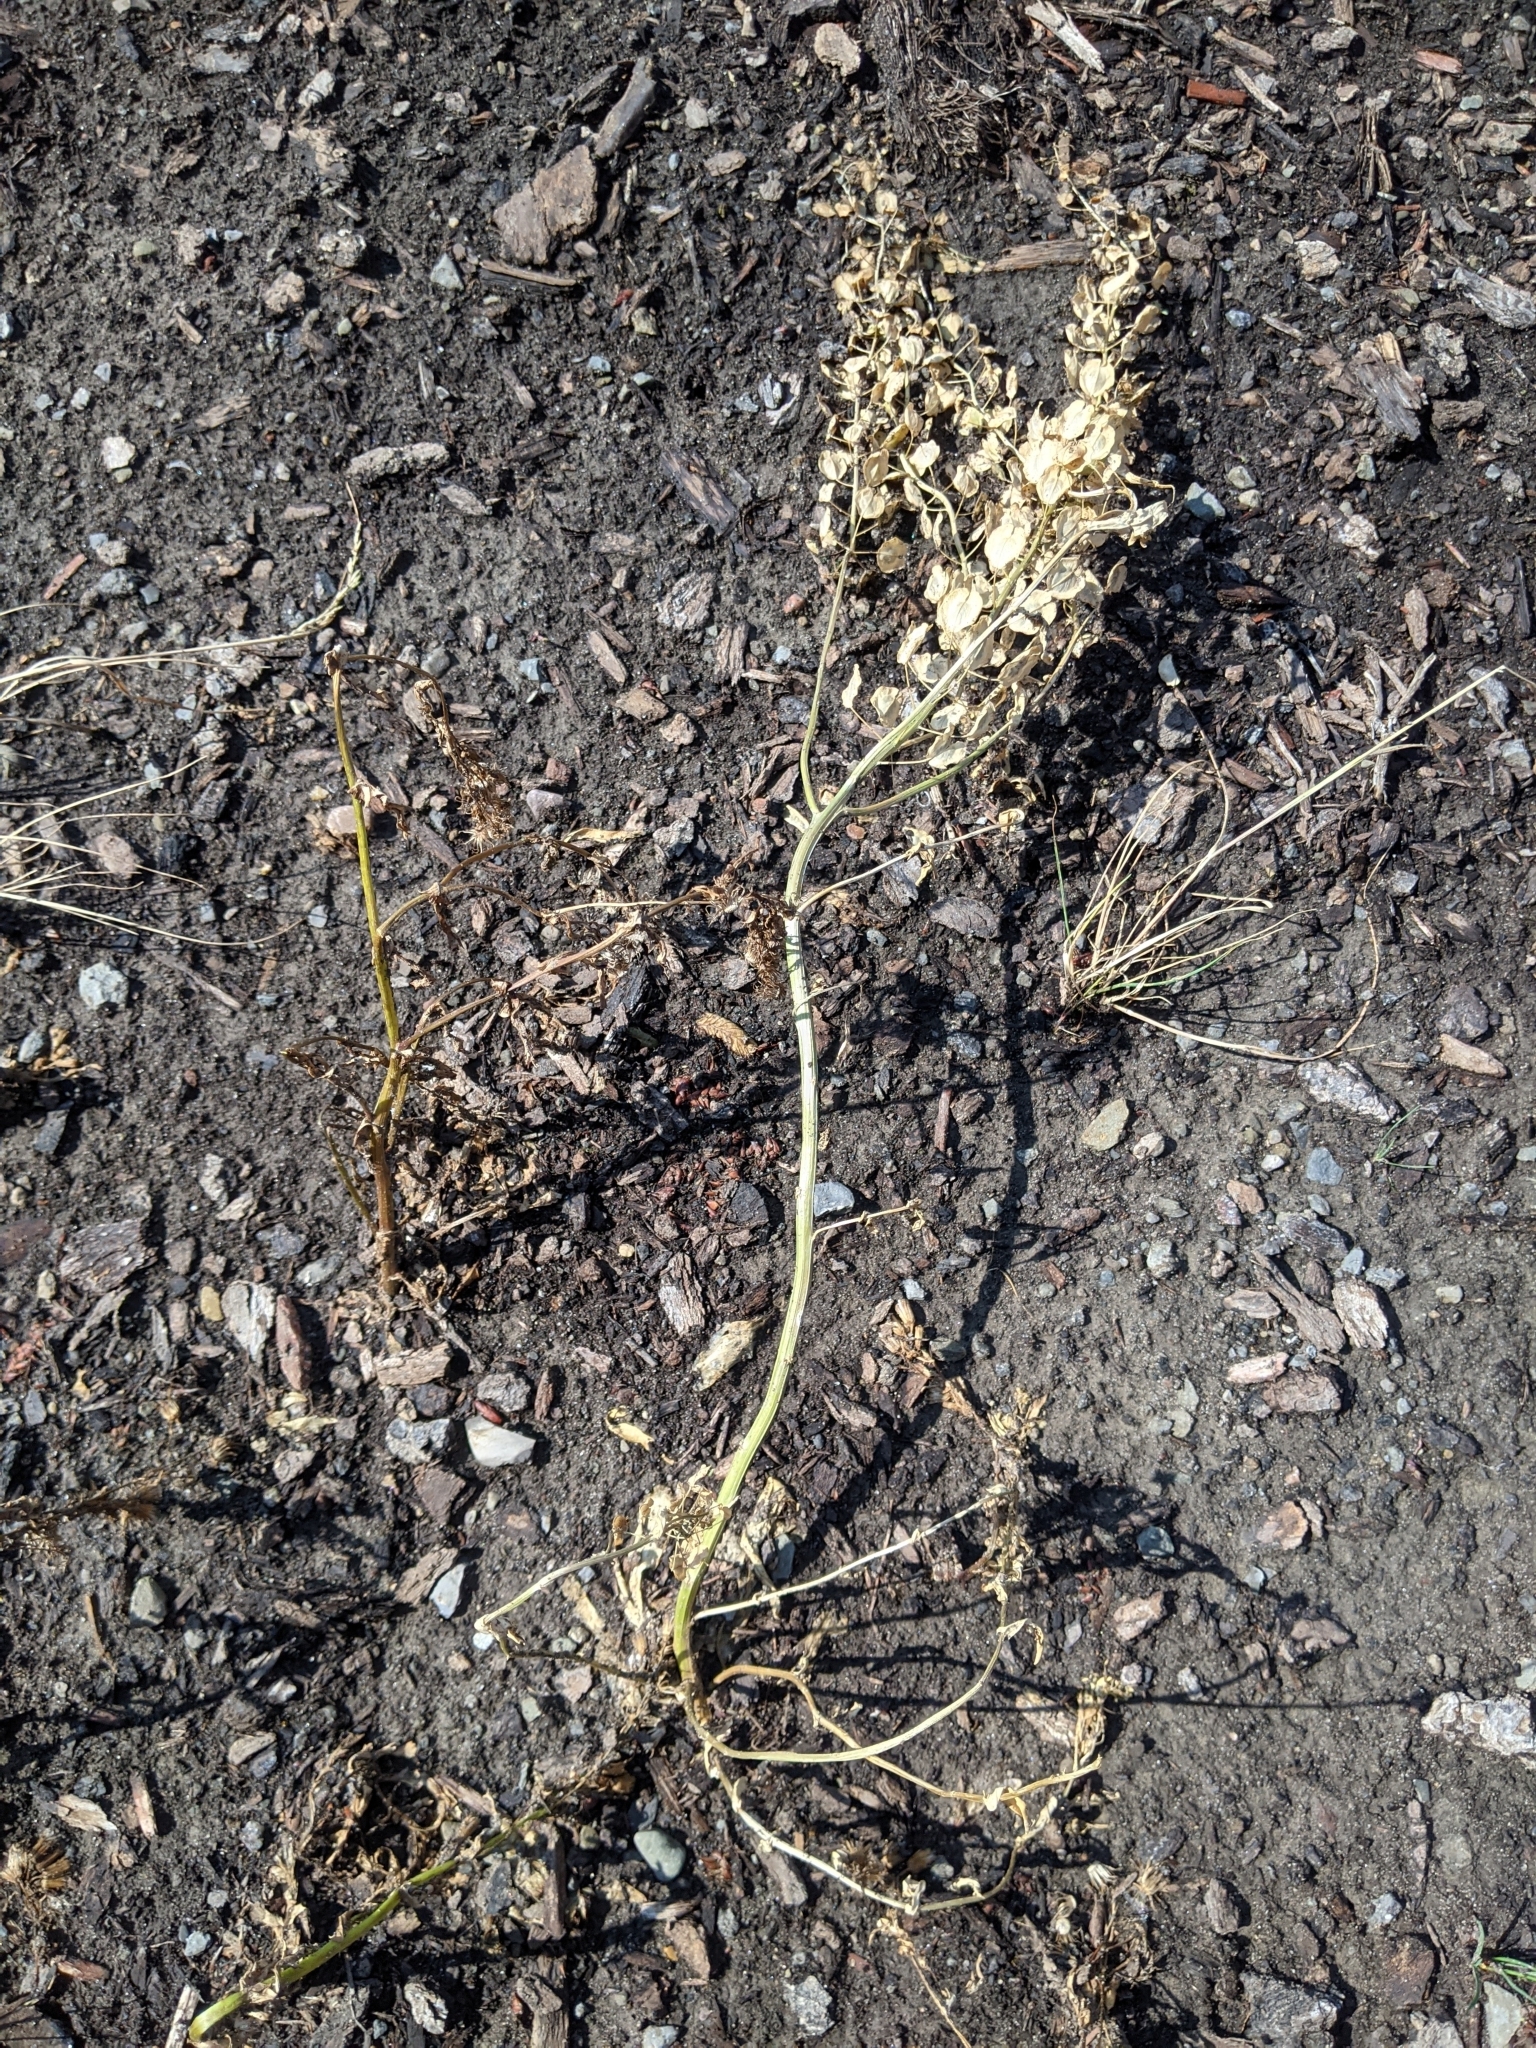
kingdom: Plantae
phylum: Tracheophyta
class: Magnoliopsida
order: Brassicales
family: Brassicaceae
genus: Thlaspi
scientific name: Thlaspi arvense
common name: Field pennycress
